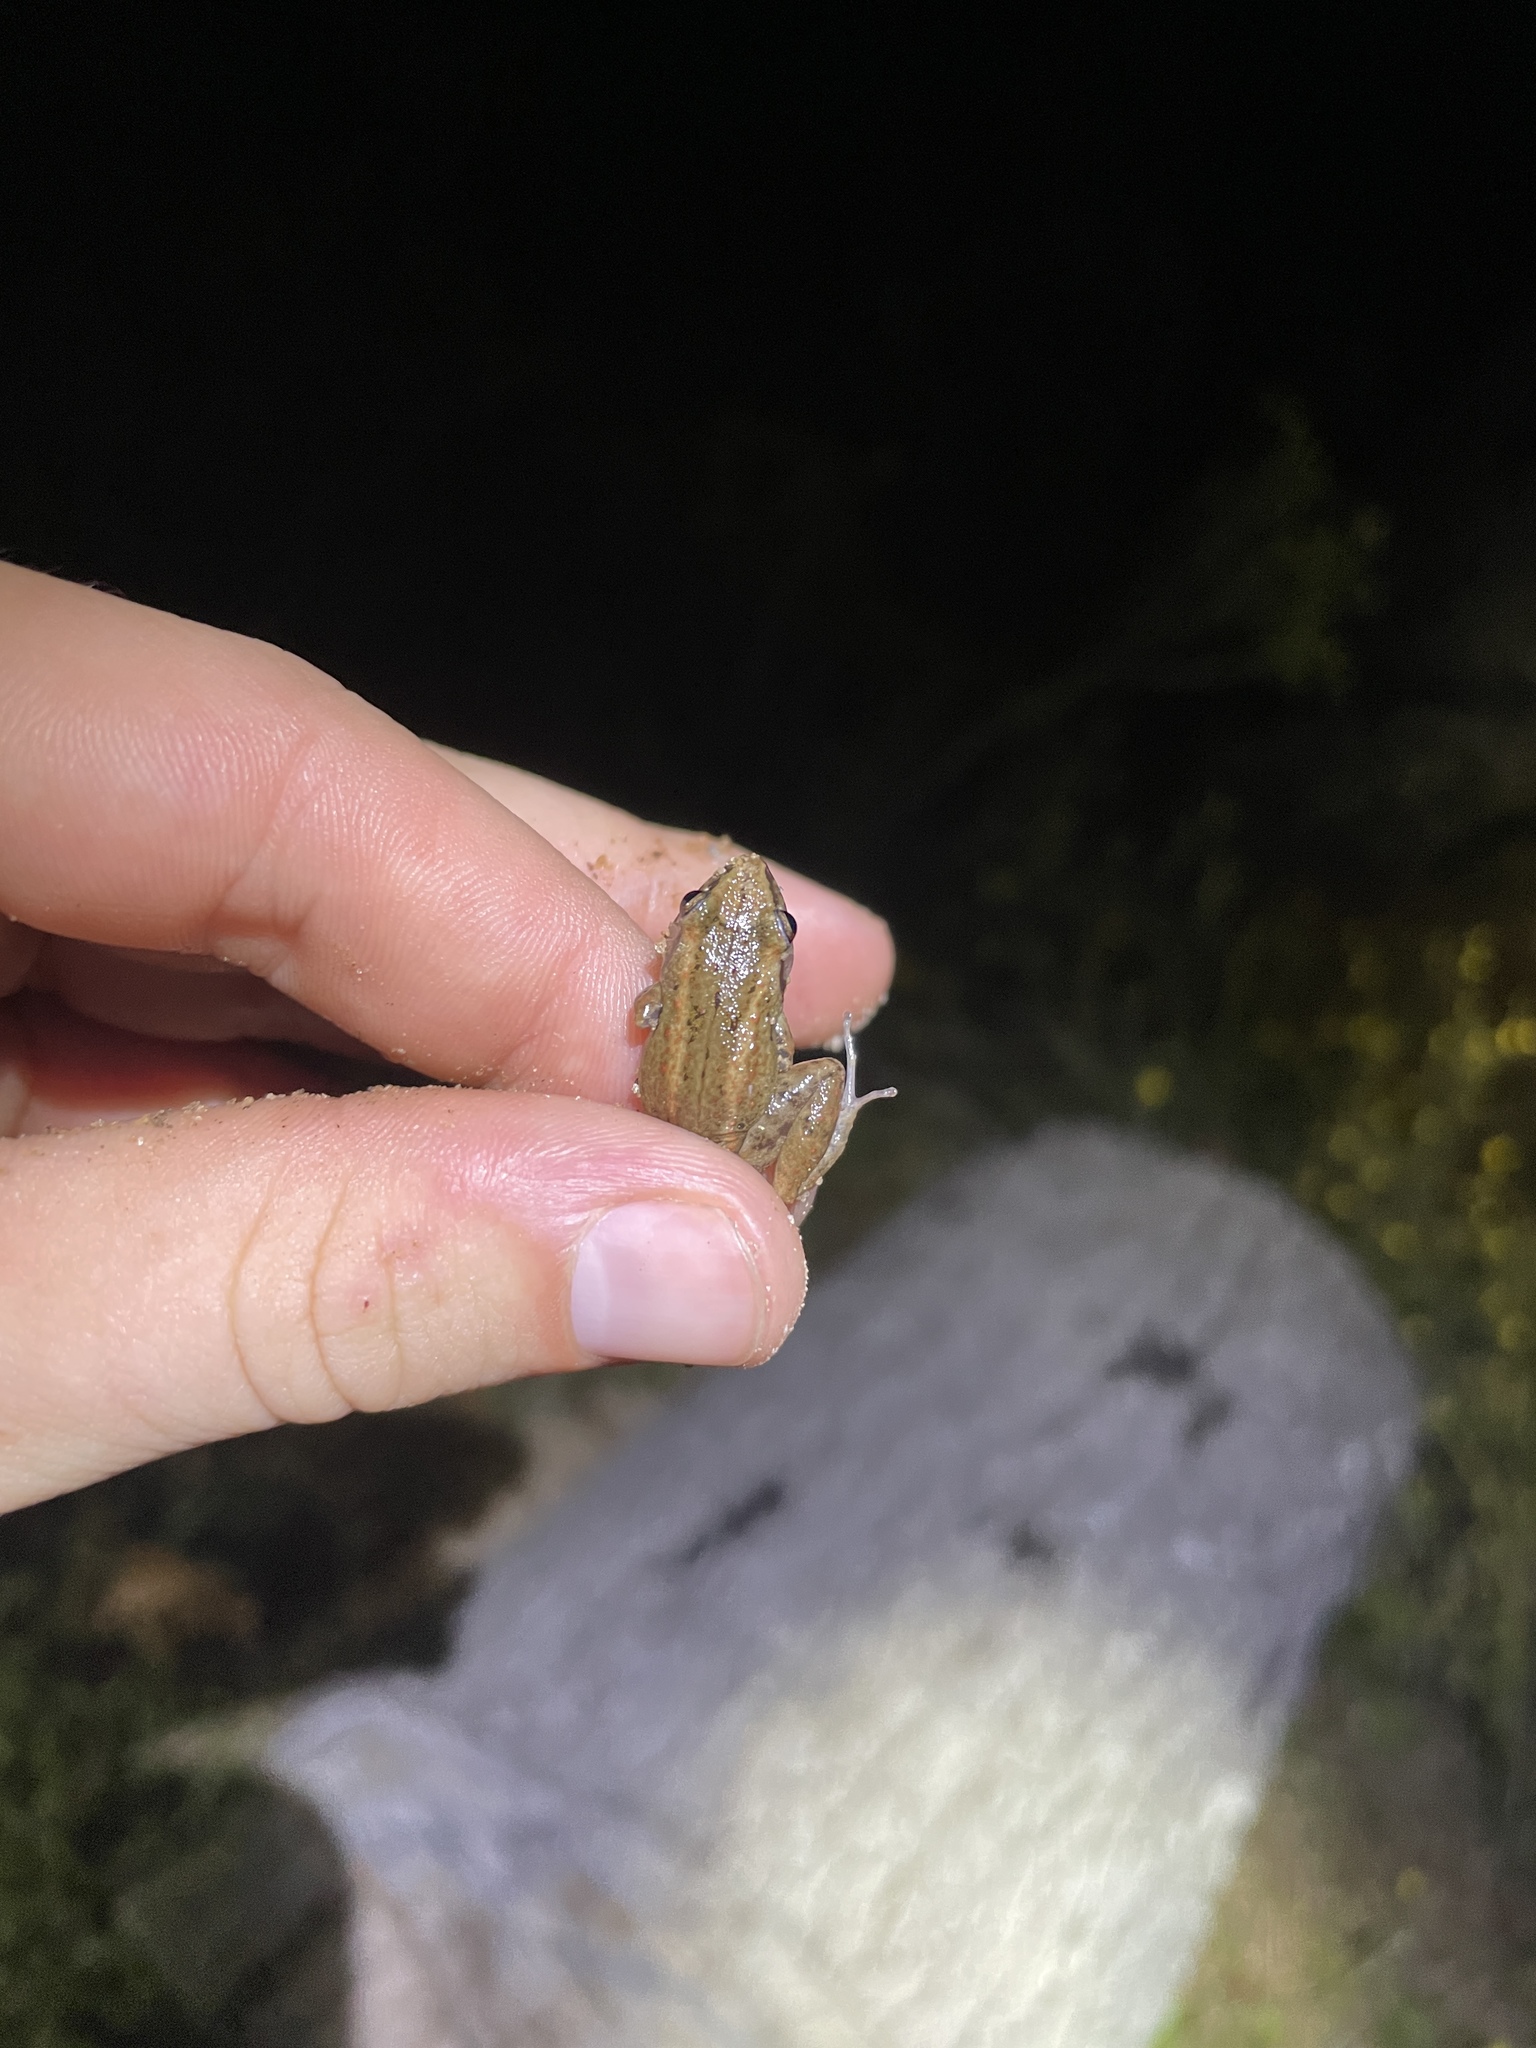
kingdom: Animalia
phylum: Chordata
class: Amphibia
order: Anura
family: Eleutherodactylidae
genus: Eleutherodactylus
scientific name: Eleutherodactylus planirostris
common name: Greenhouse frog
